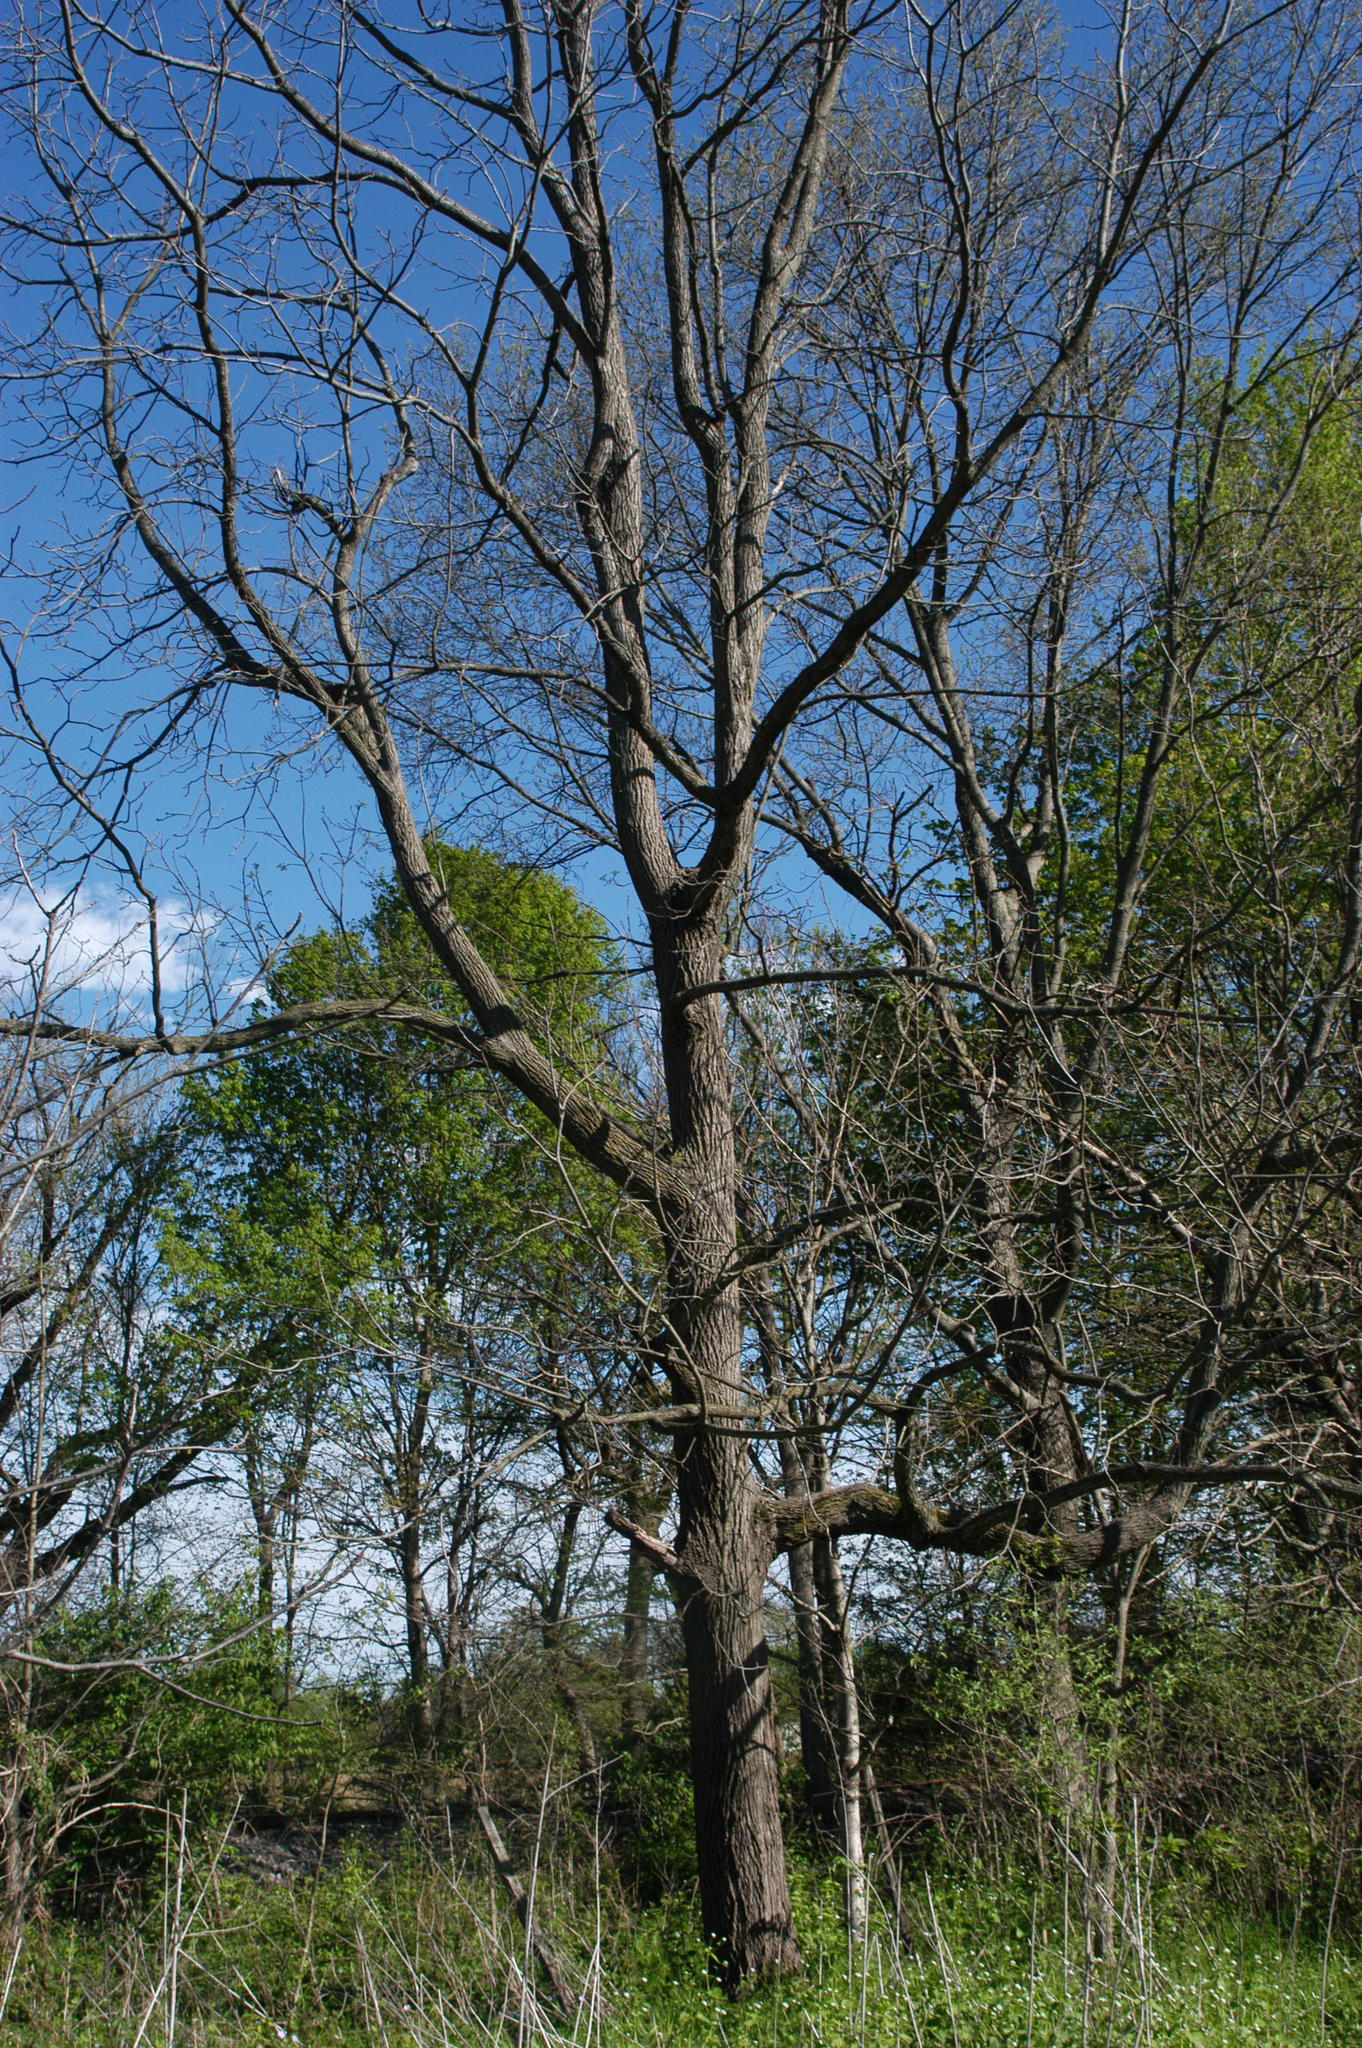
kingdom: Plantae
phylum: Tracheophyta
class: Magnoliopsida
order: Fagales
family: Juglandaceae
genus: Juglans
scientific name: Juglans nigra
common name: Black walnut
